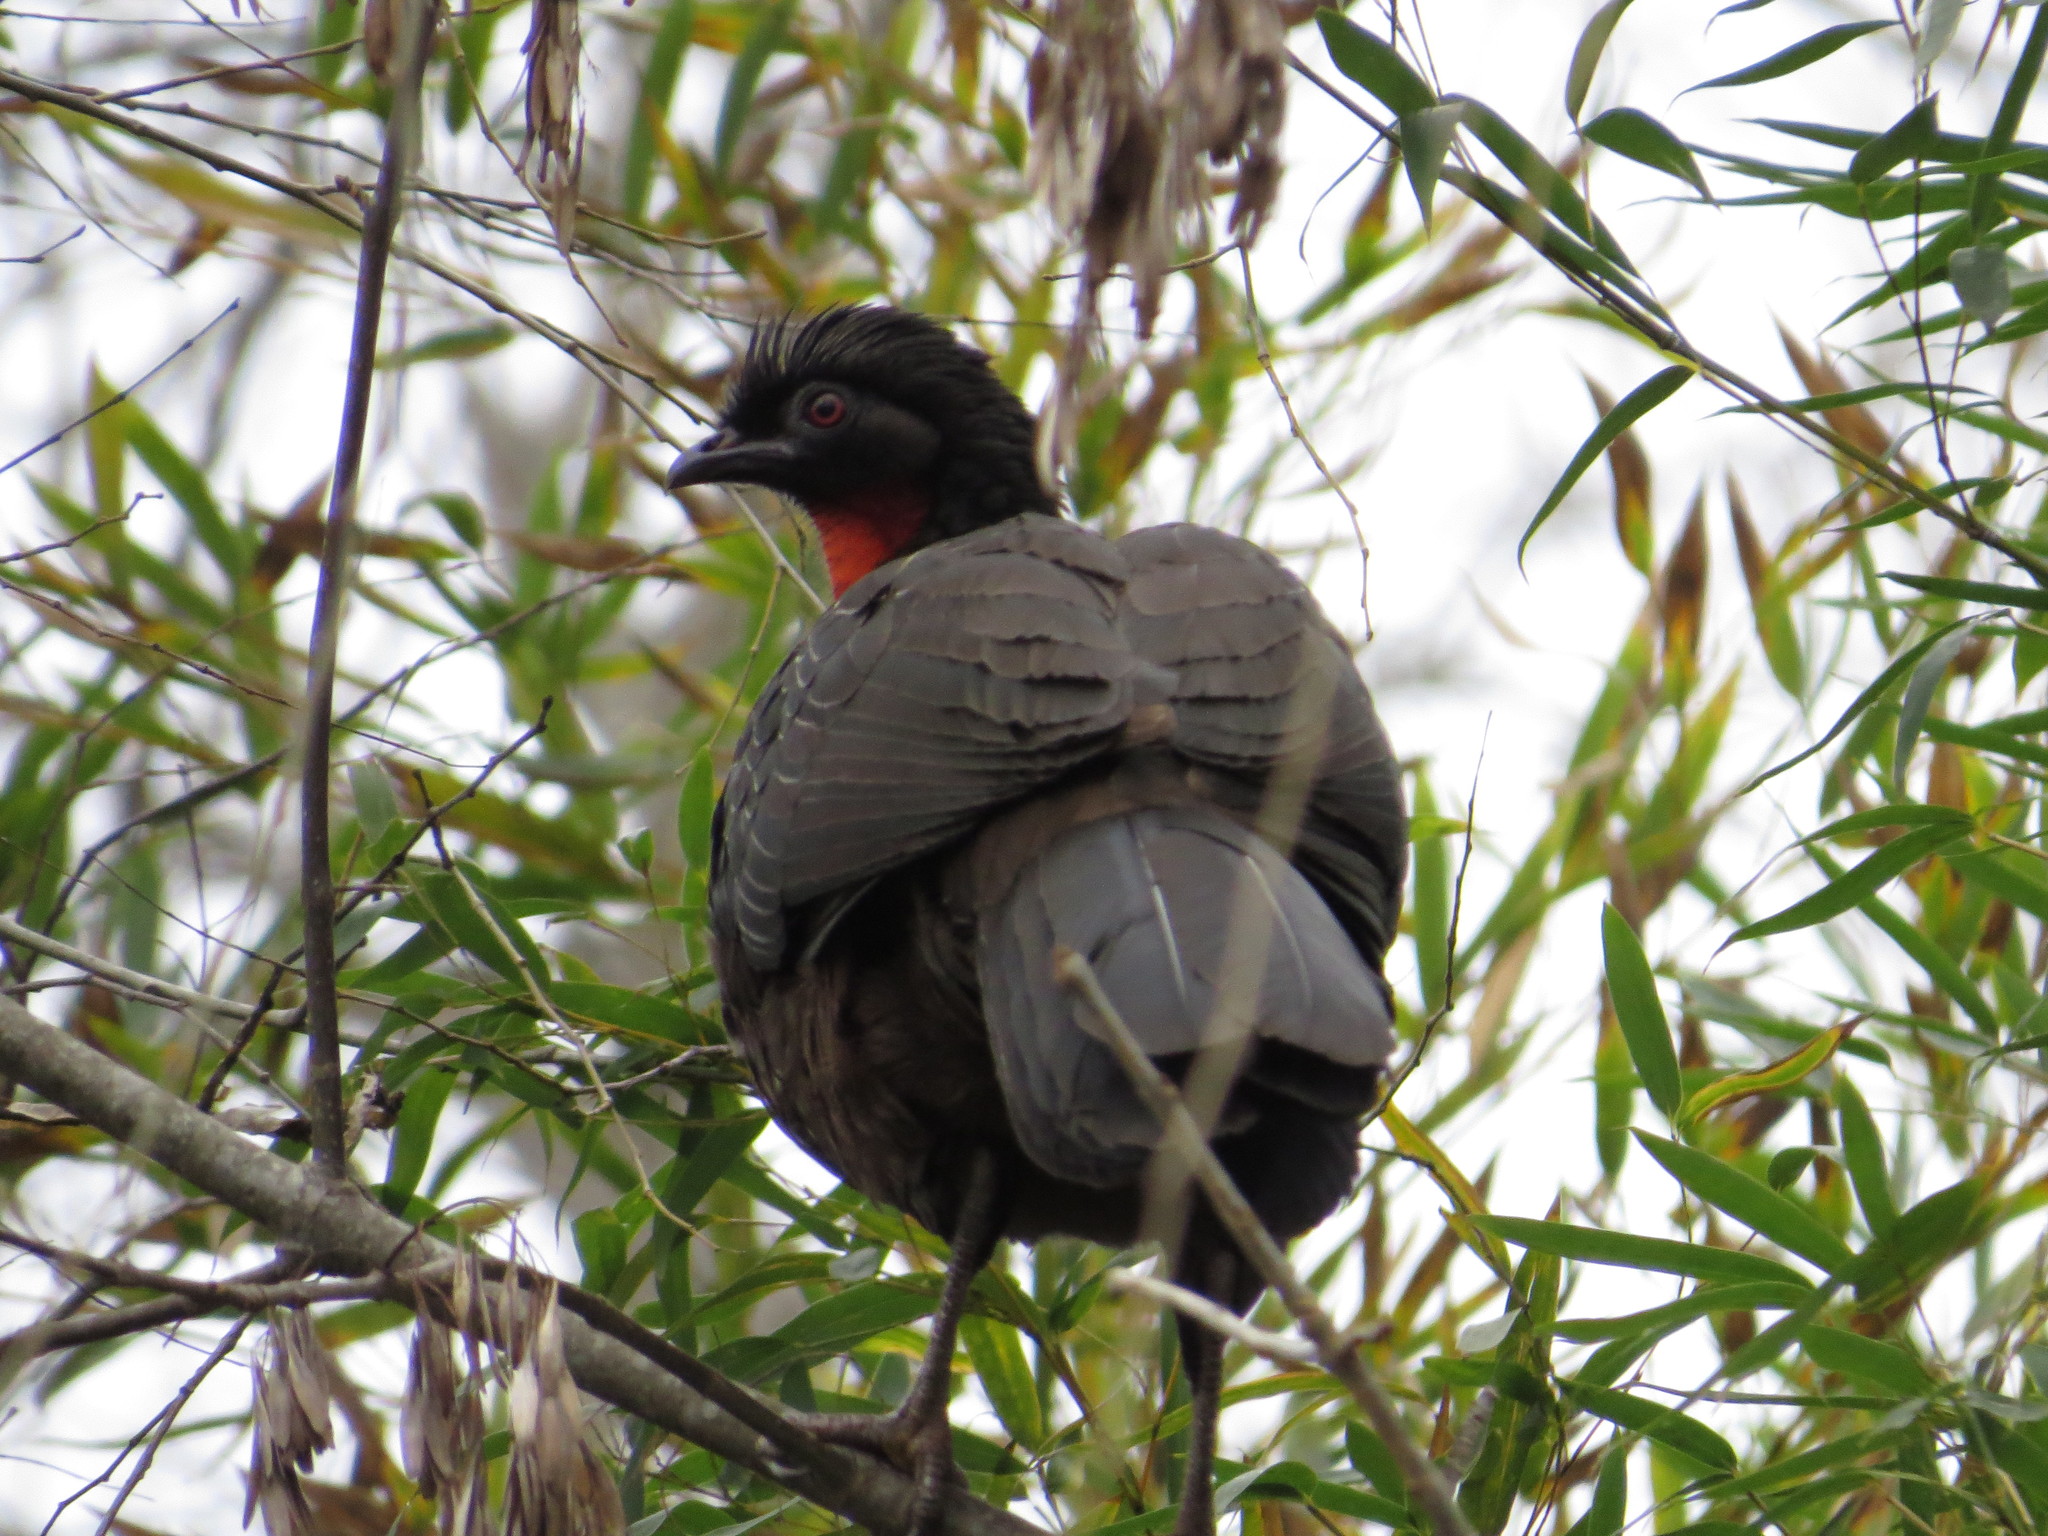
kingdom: Animalia
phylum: Chordata
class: Aves
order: Galliformes
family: Cracidae
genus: Penelope
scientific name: Penelope obscura
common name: Dusky-legged guan
